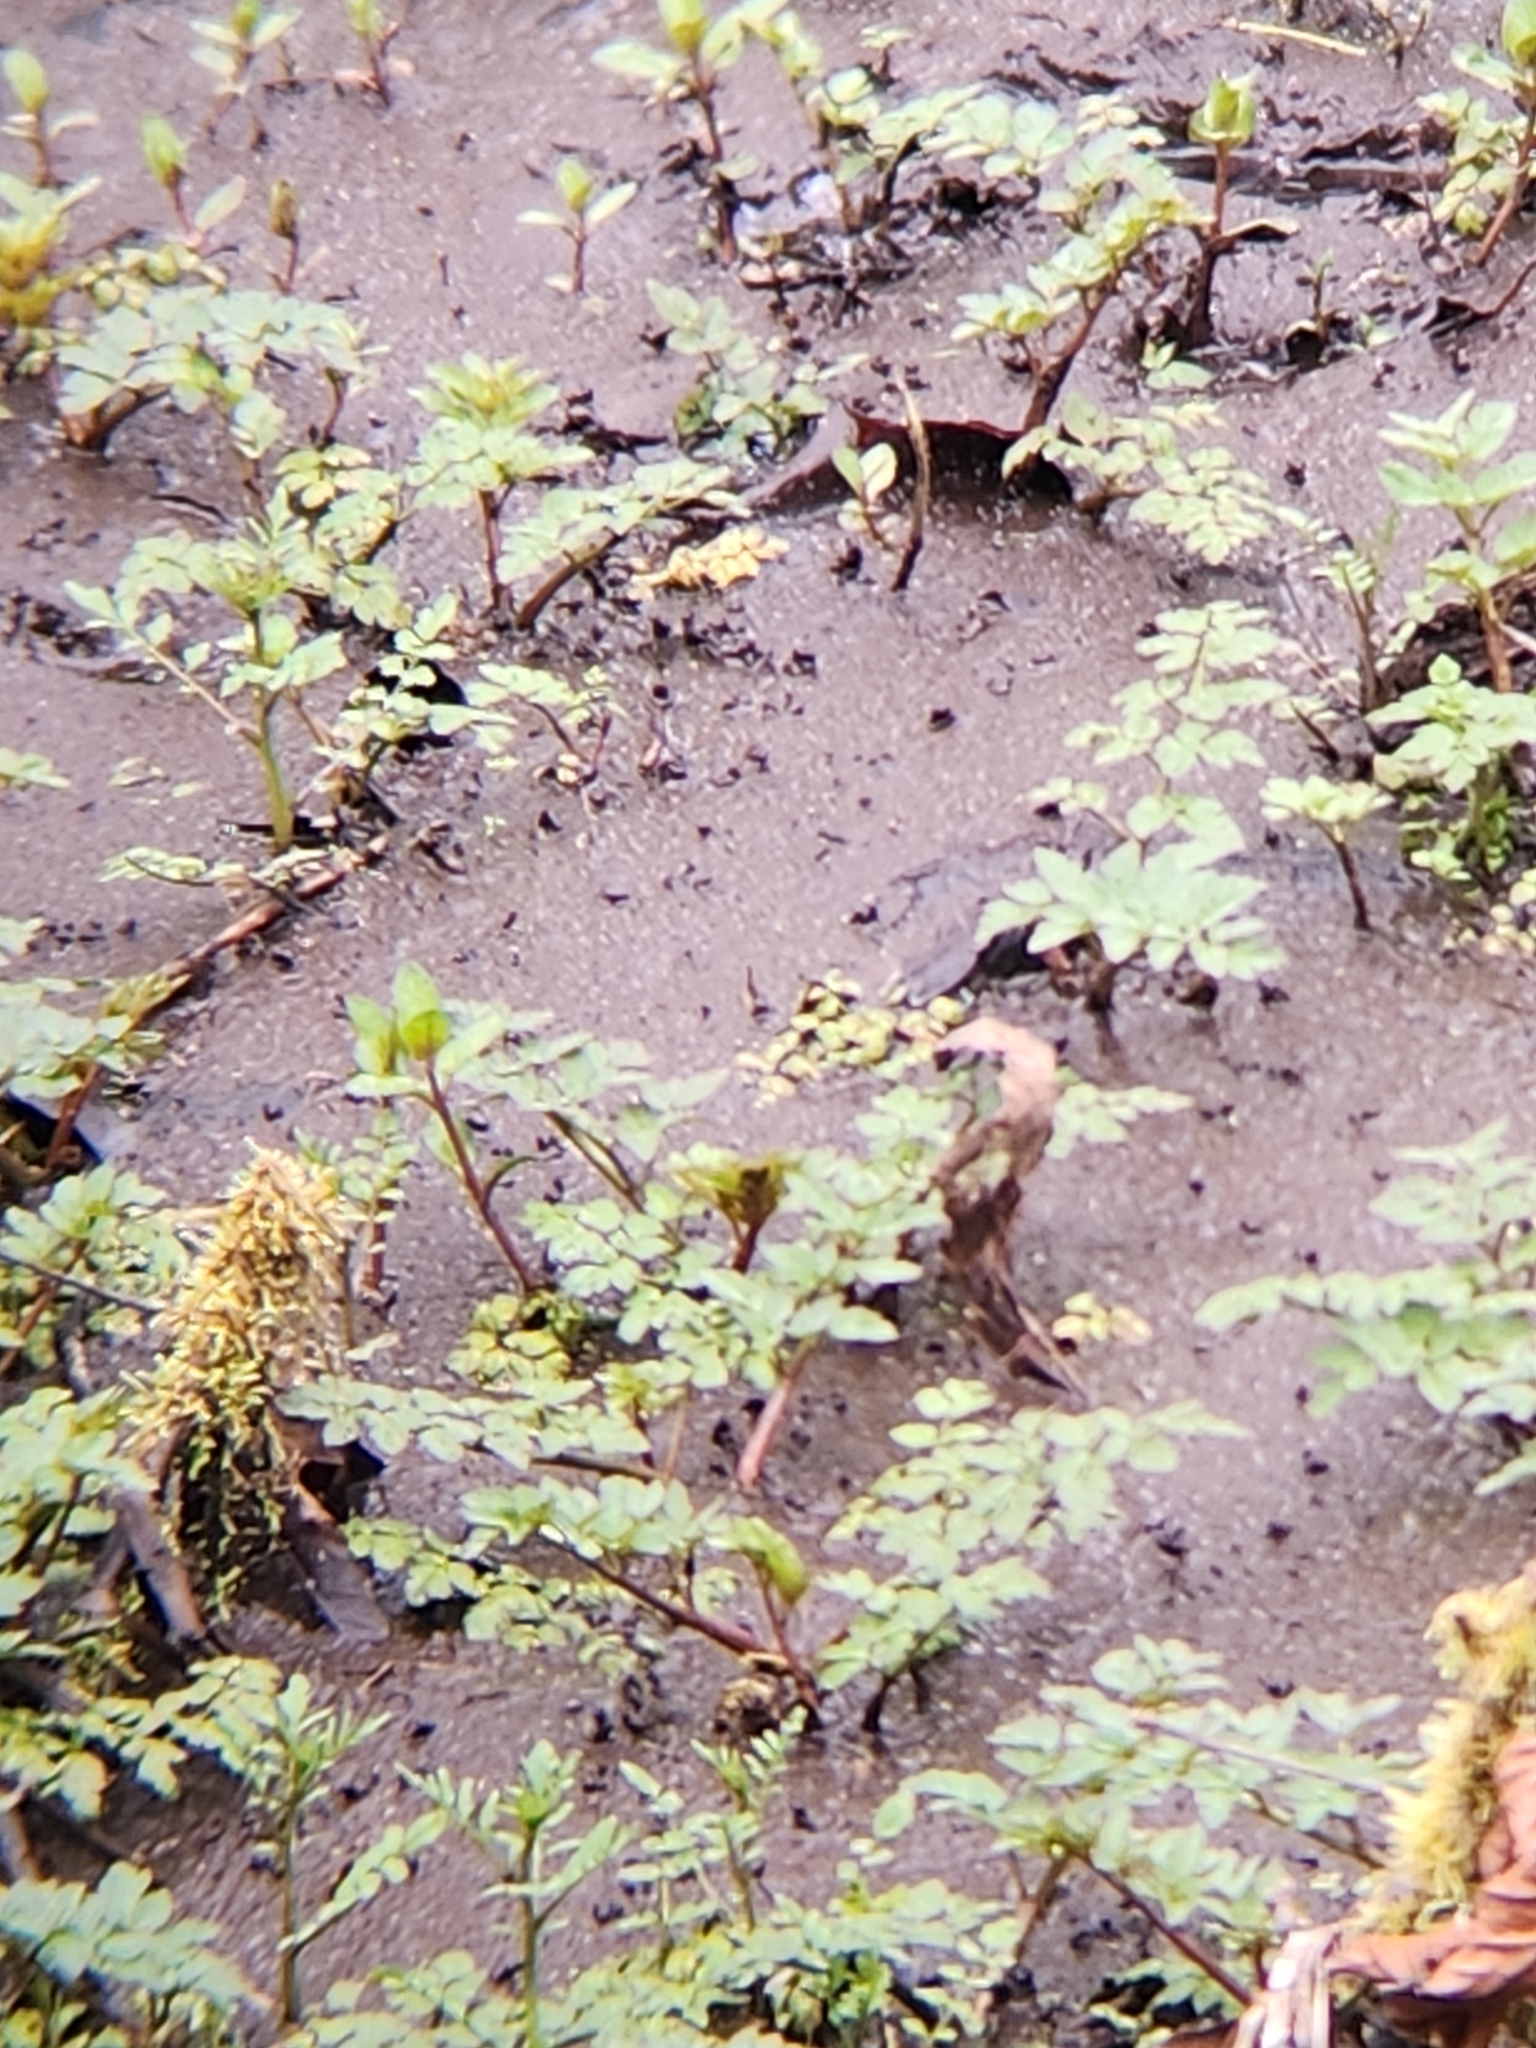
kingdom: Plantae
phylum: Tracheophyta
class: Magnoliopsida
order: Apiales
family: Apiaceae
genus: Oenanthe
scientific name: Oenanthe sarmentosa
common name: American water-parsley
